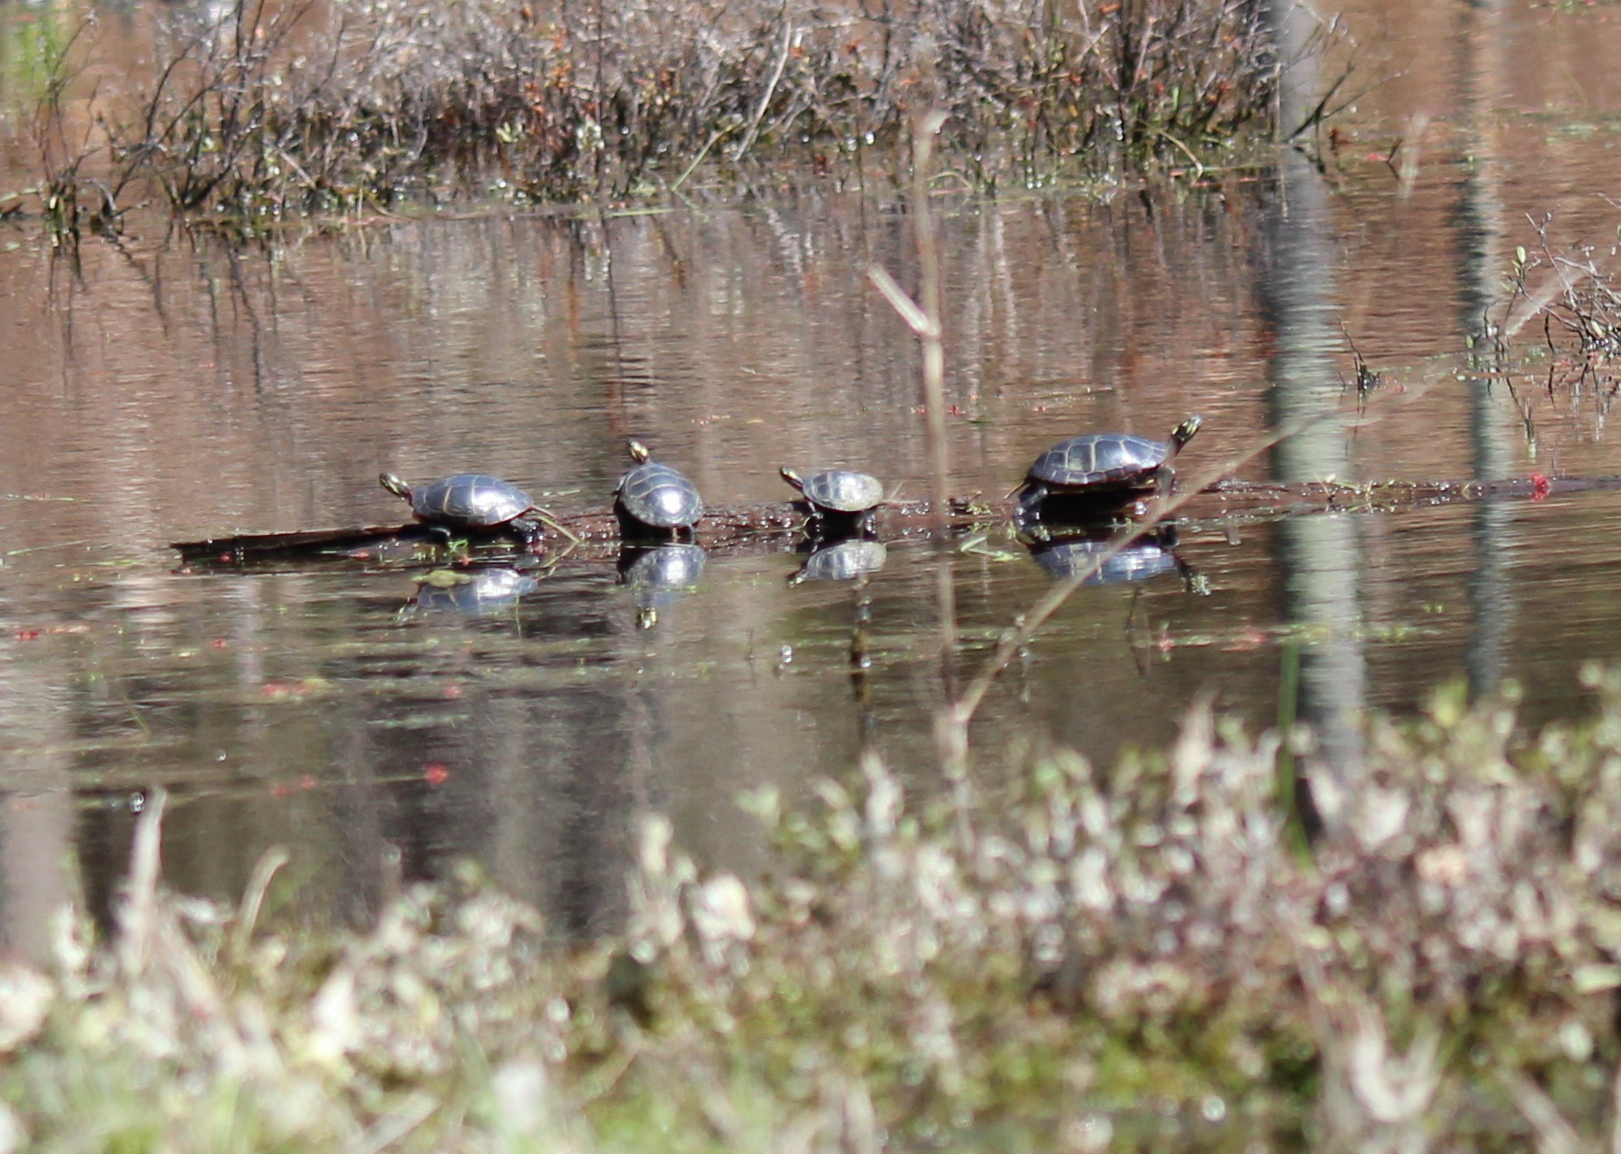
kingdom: Animalia
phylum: Chordata
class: Testudines
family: Emydidae
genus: Chrysemys
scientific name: Chrysemys picta
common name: Painted turtle
